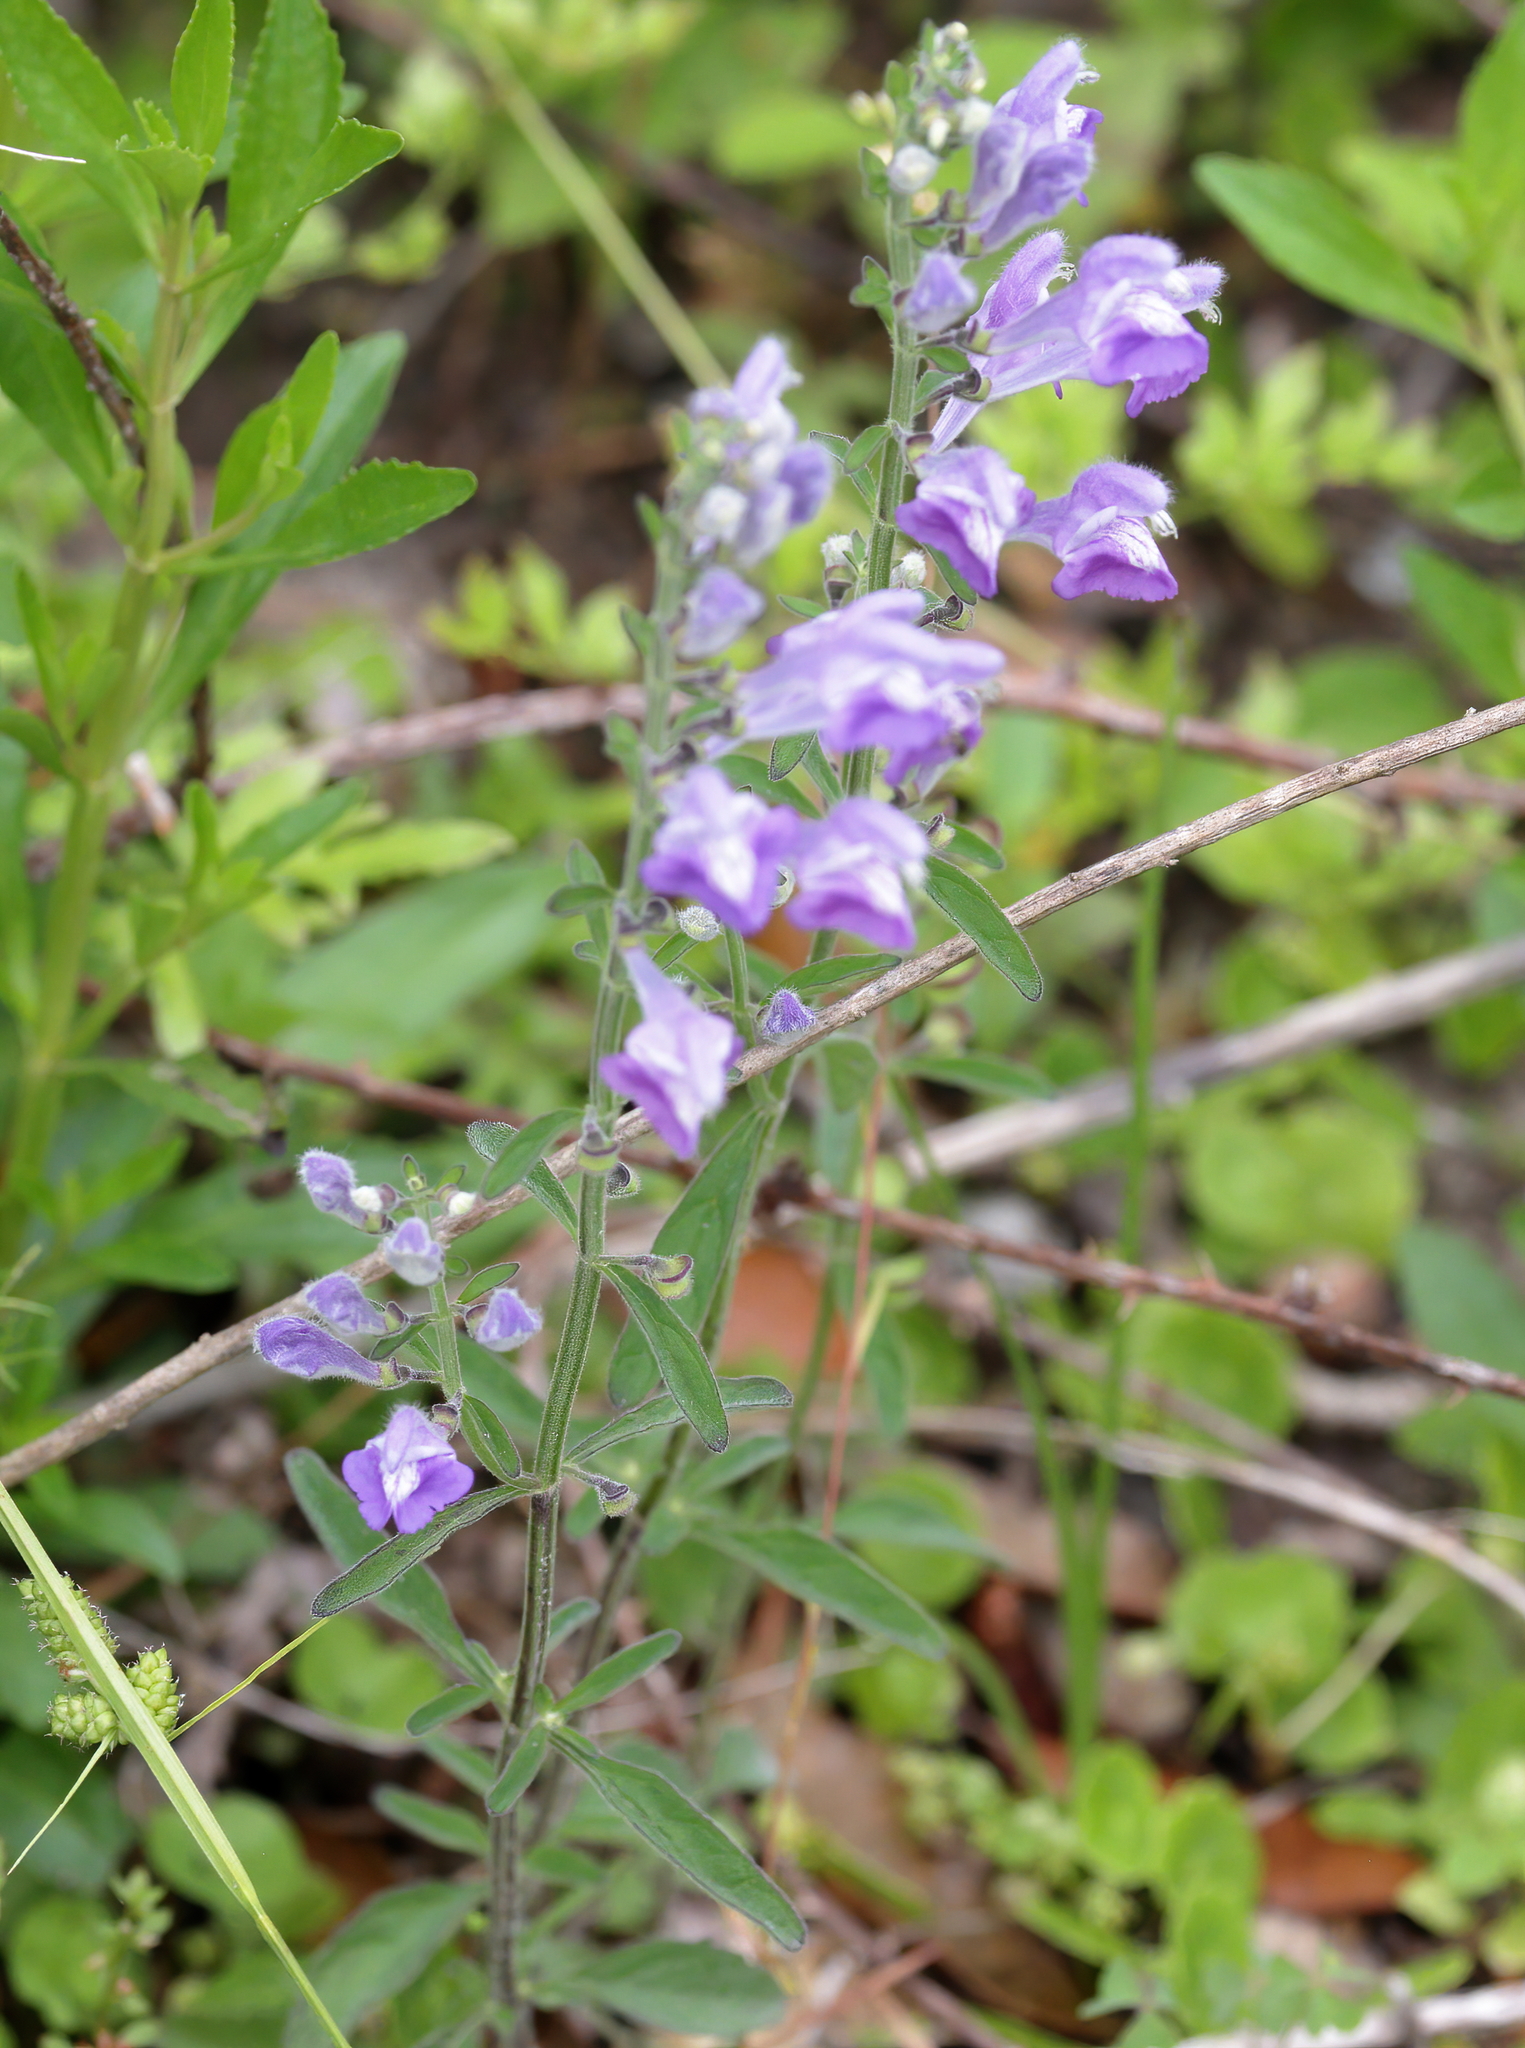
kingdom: Plantae
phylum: Tracheophyta
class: Magnoliopsida
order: Lamiales
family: Lamiaceae
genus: Scutellaria
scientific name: Scutellaria integrifolia
